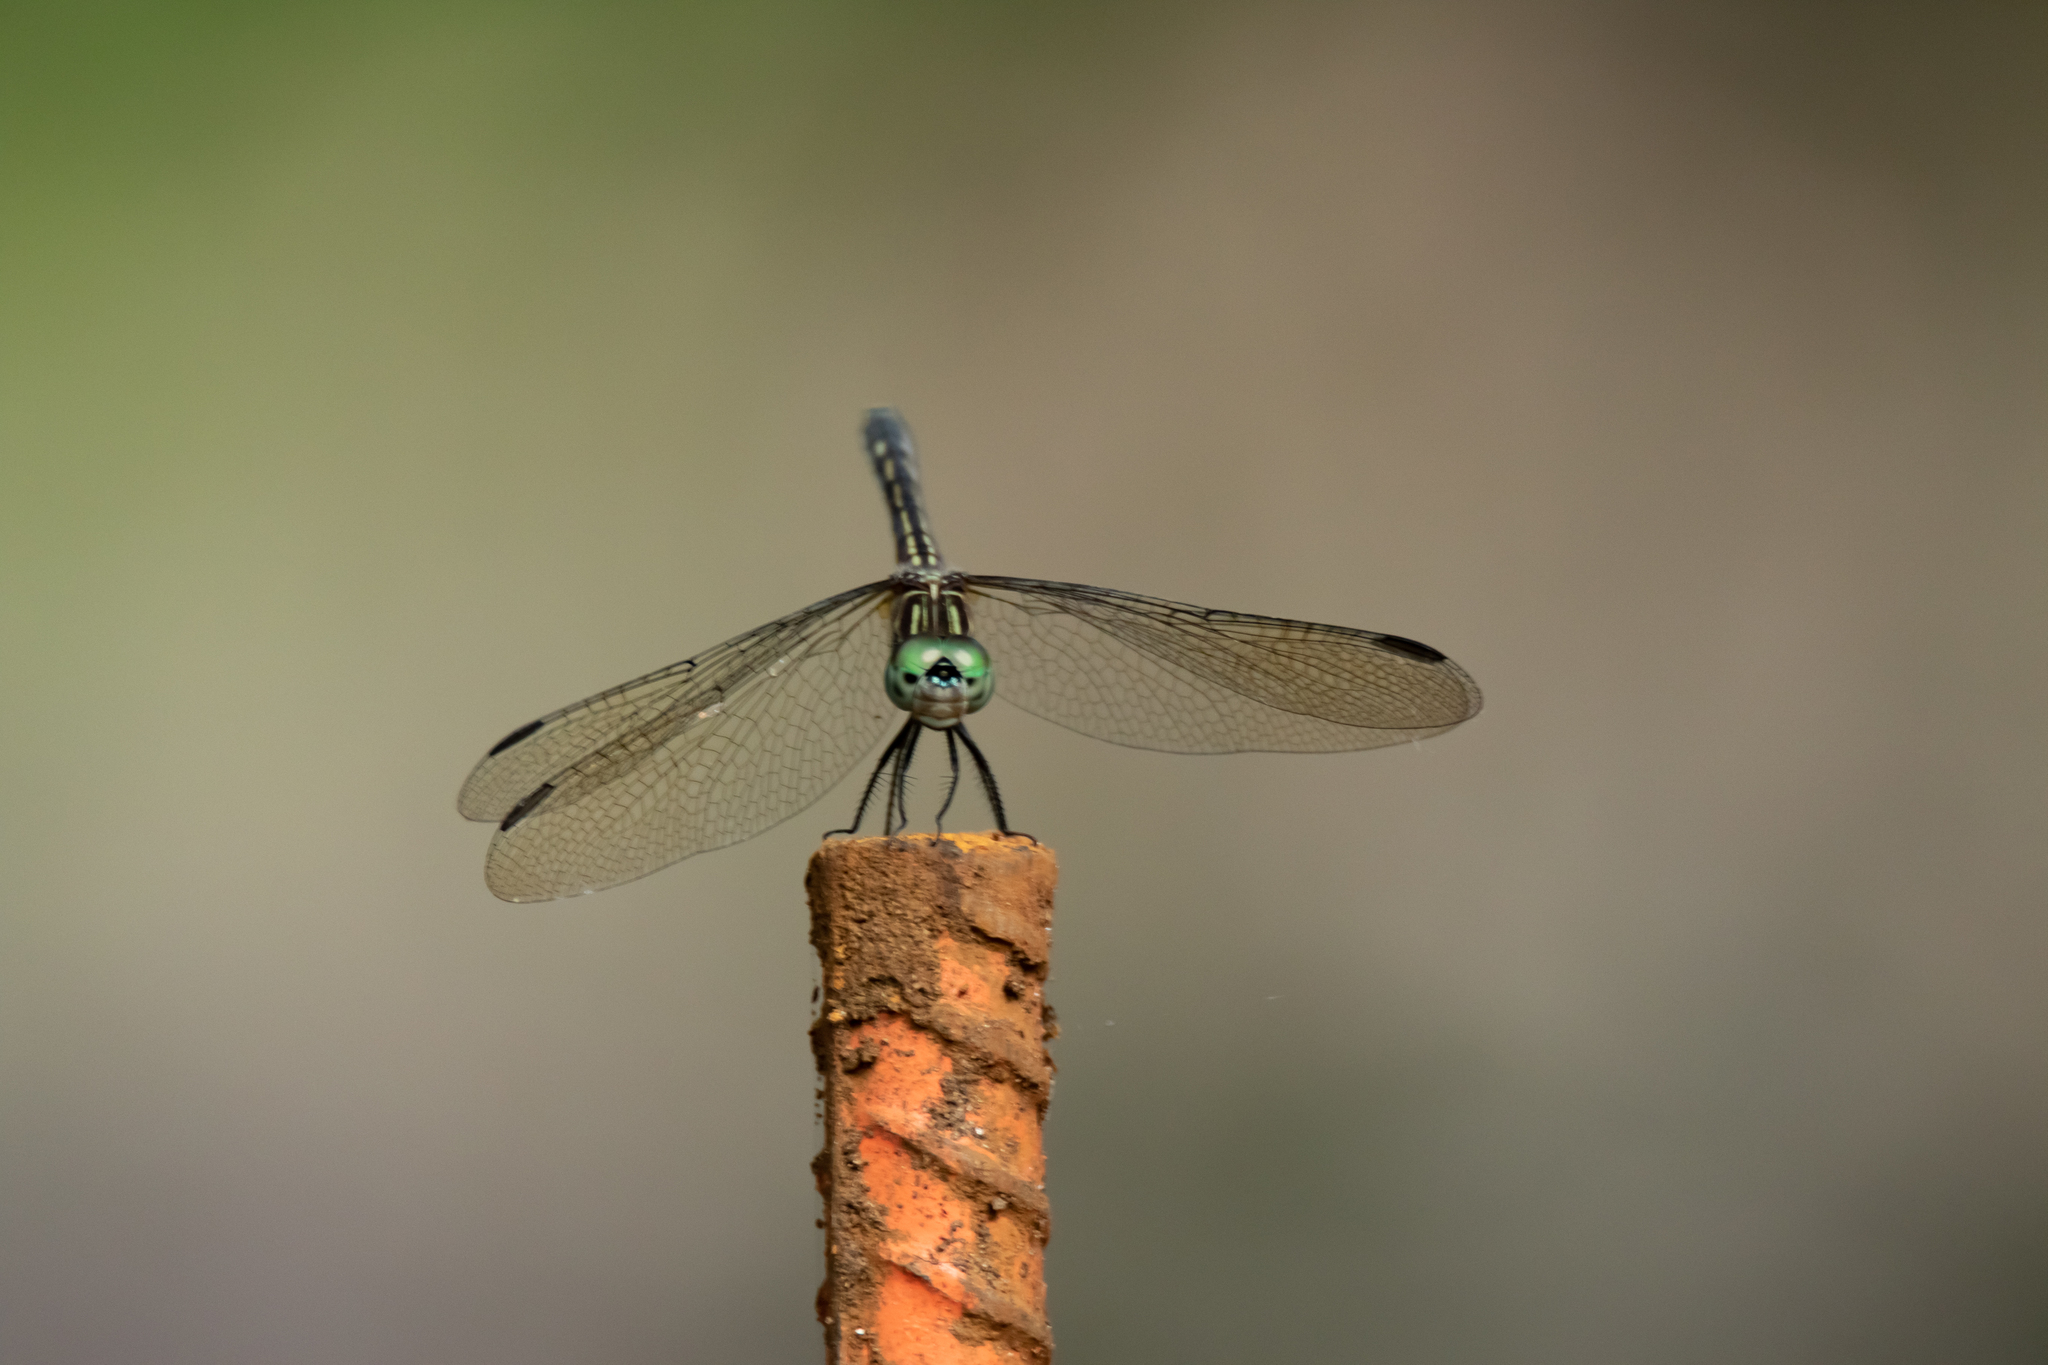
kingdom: Animalia
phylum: Arthropoda
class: Insecta
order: Odonata
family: Libellulidae
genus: Pachydiplax
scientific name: Pachydiplax longipennis
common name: Blue dasher
